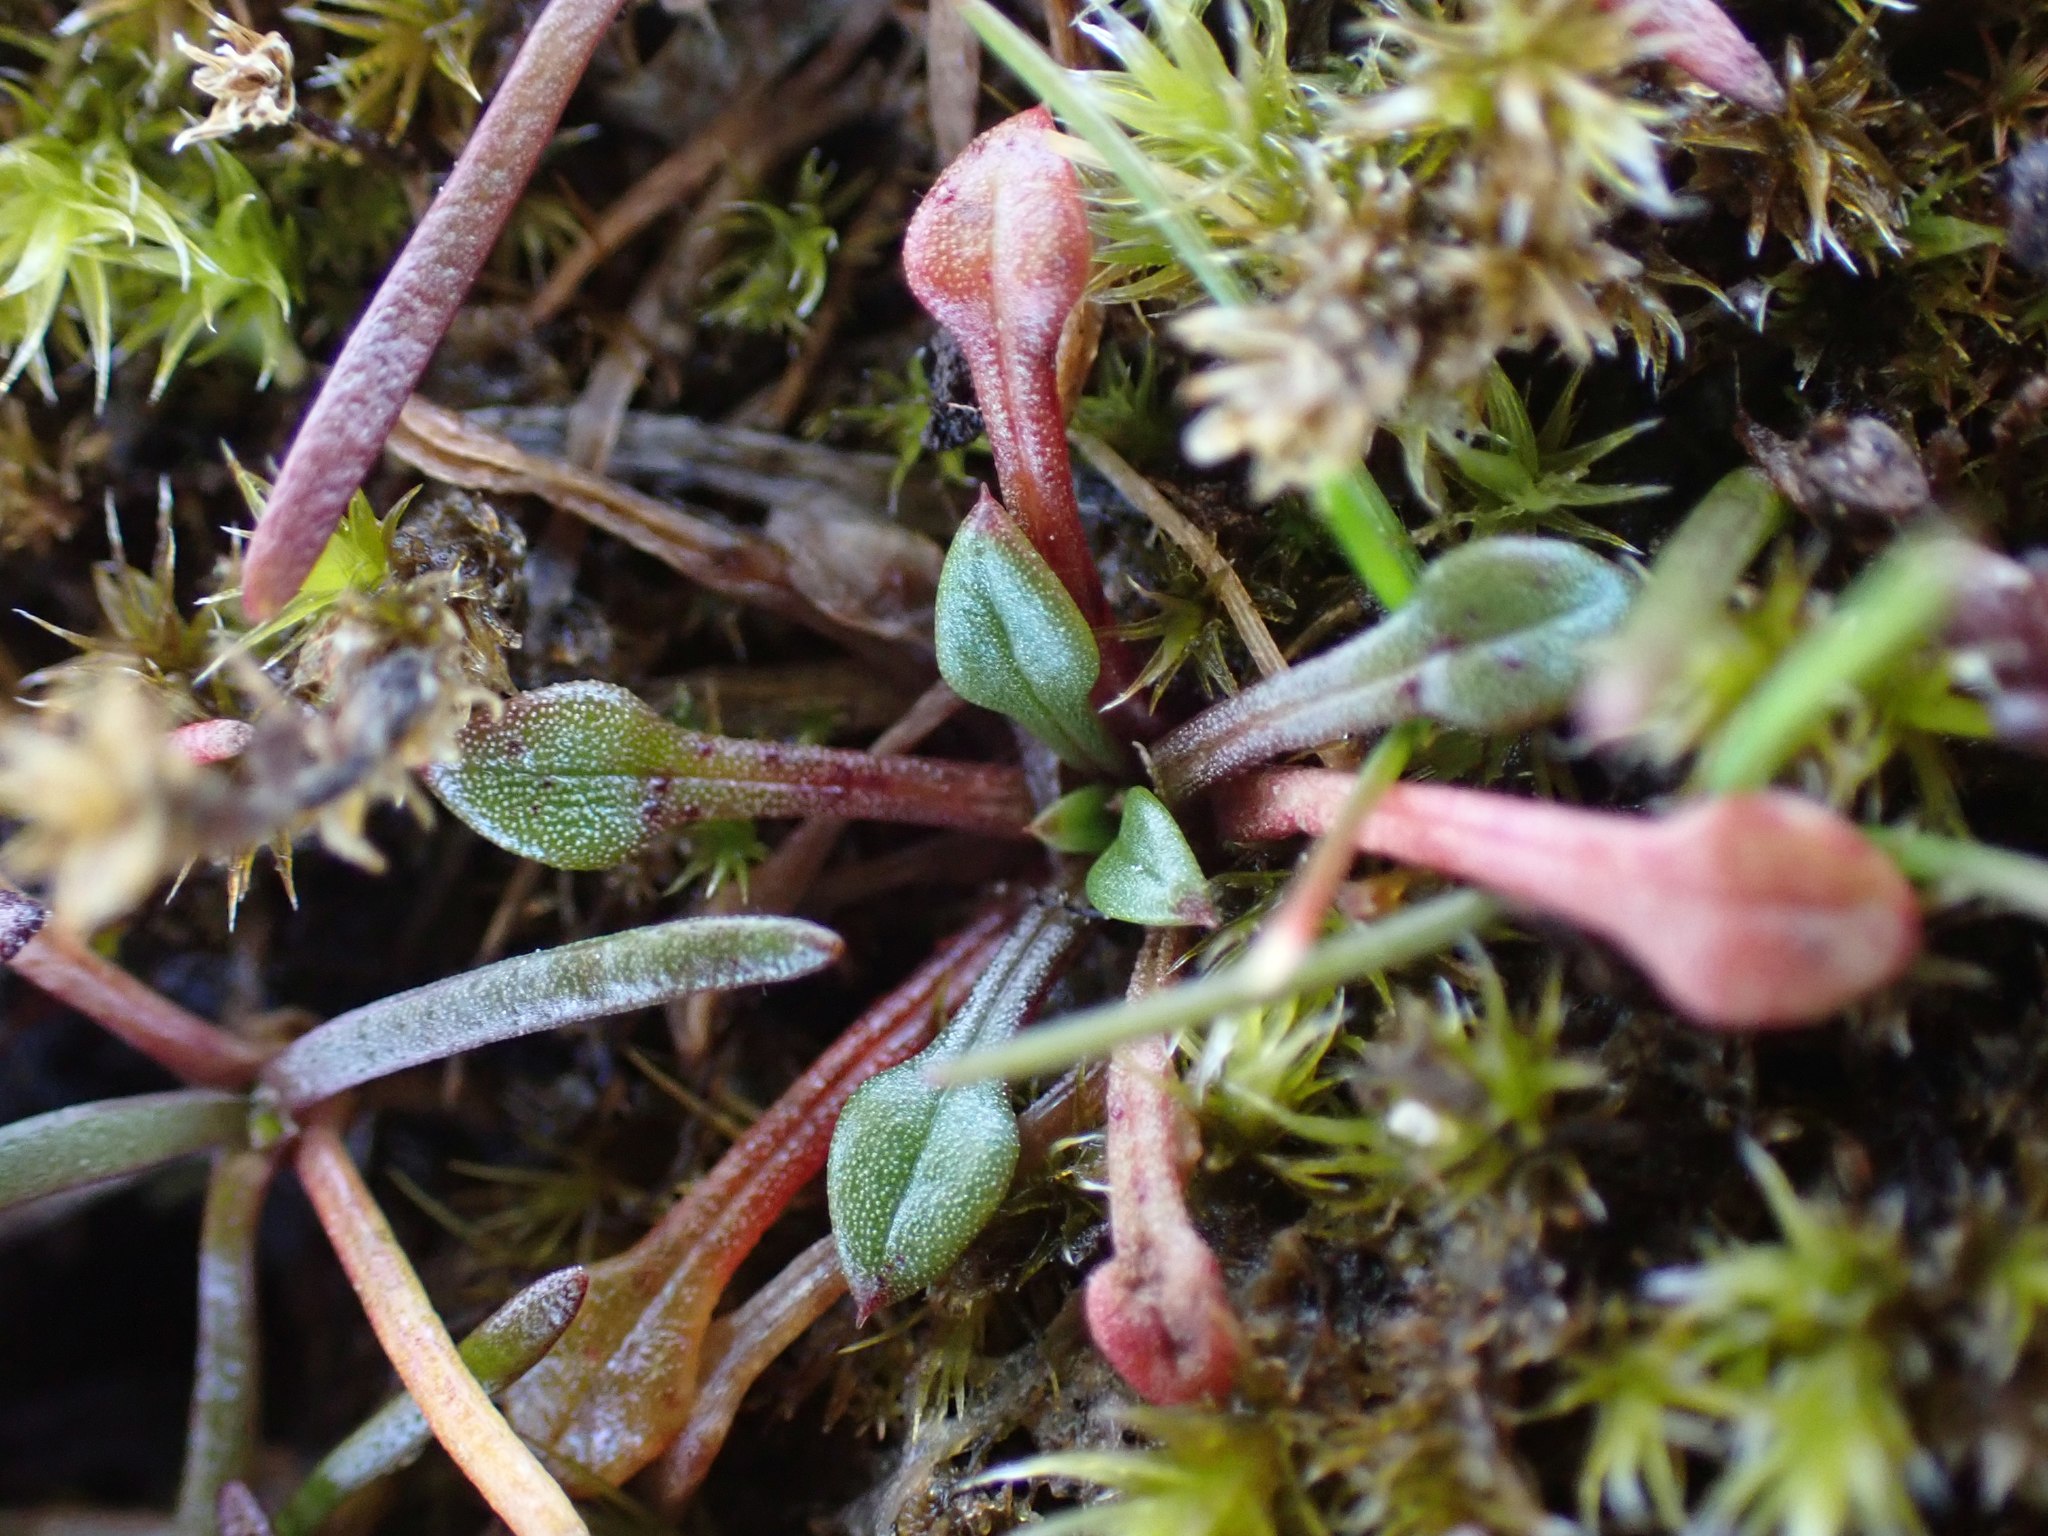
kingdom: Plantae
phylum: Tracheophyta
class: Magnoliopsida
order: Caryophyllales
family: Montiaceae
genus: Calandrinia
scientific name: Calandrinia menziesii
